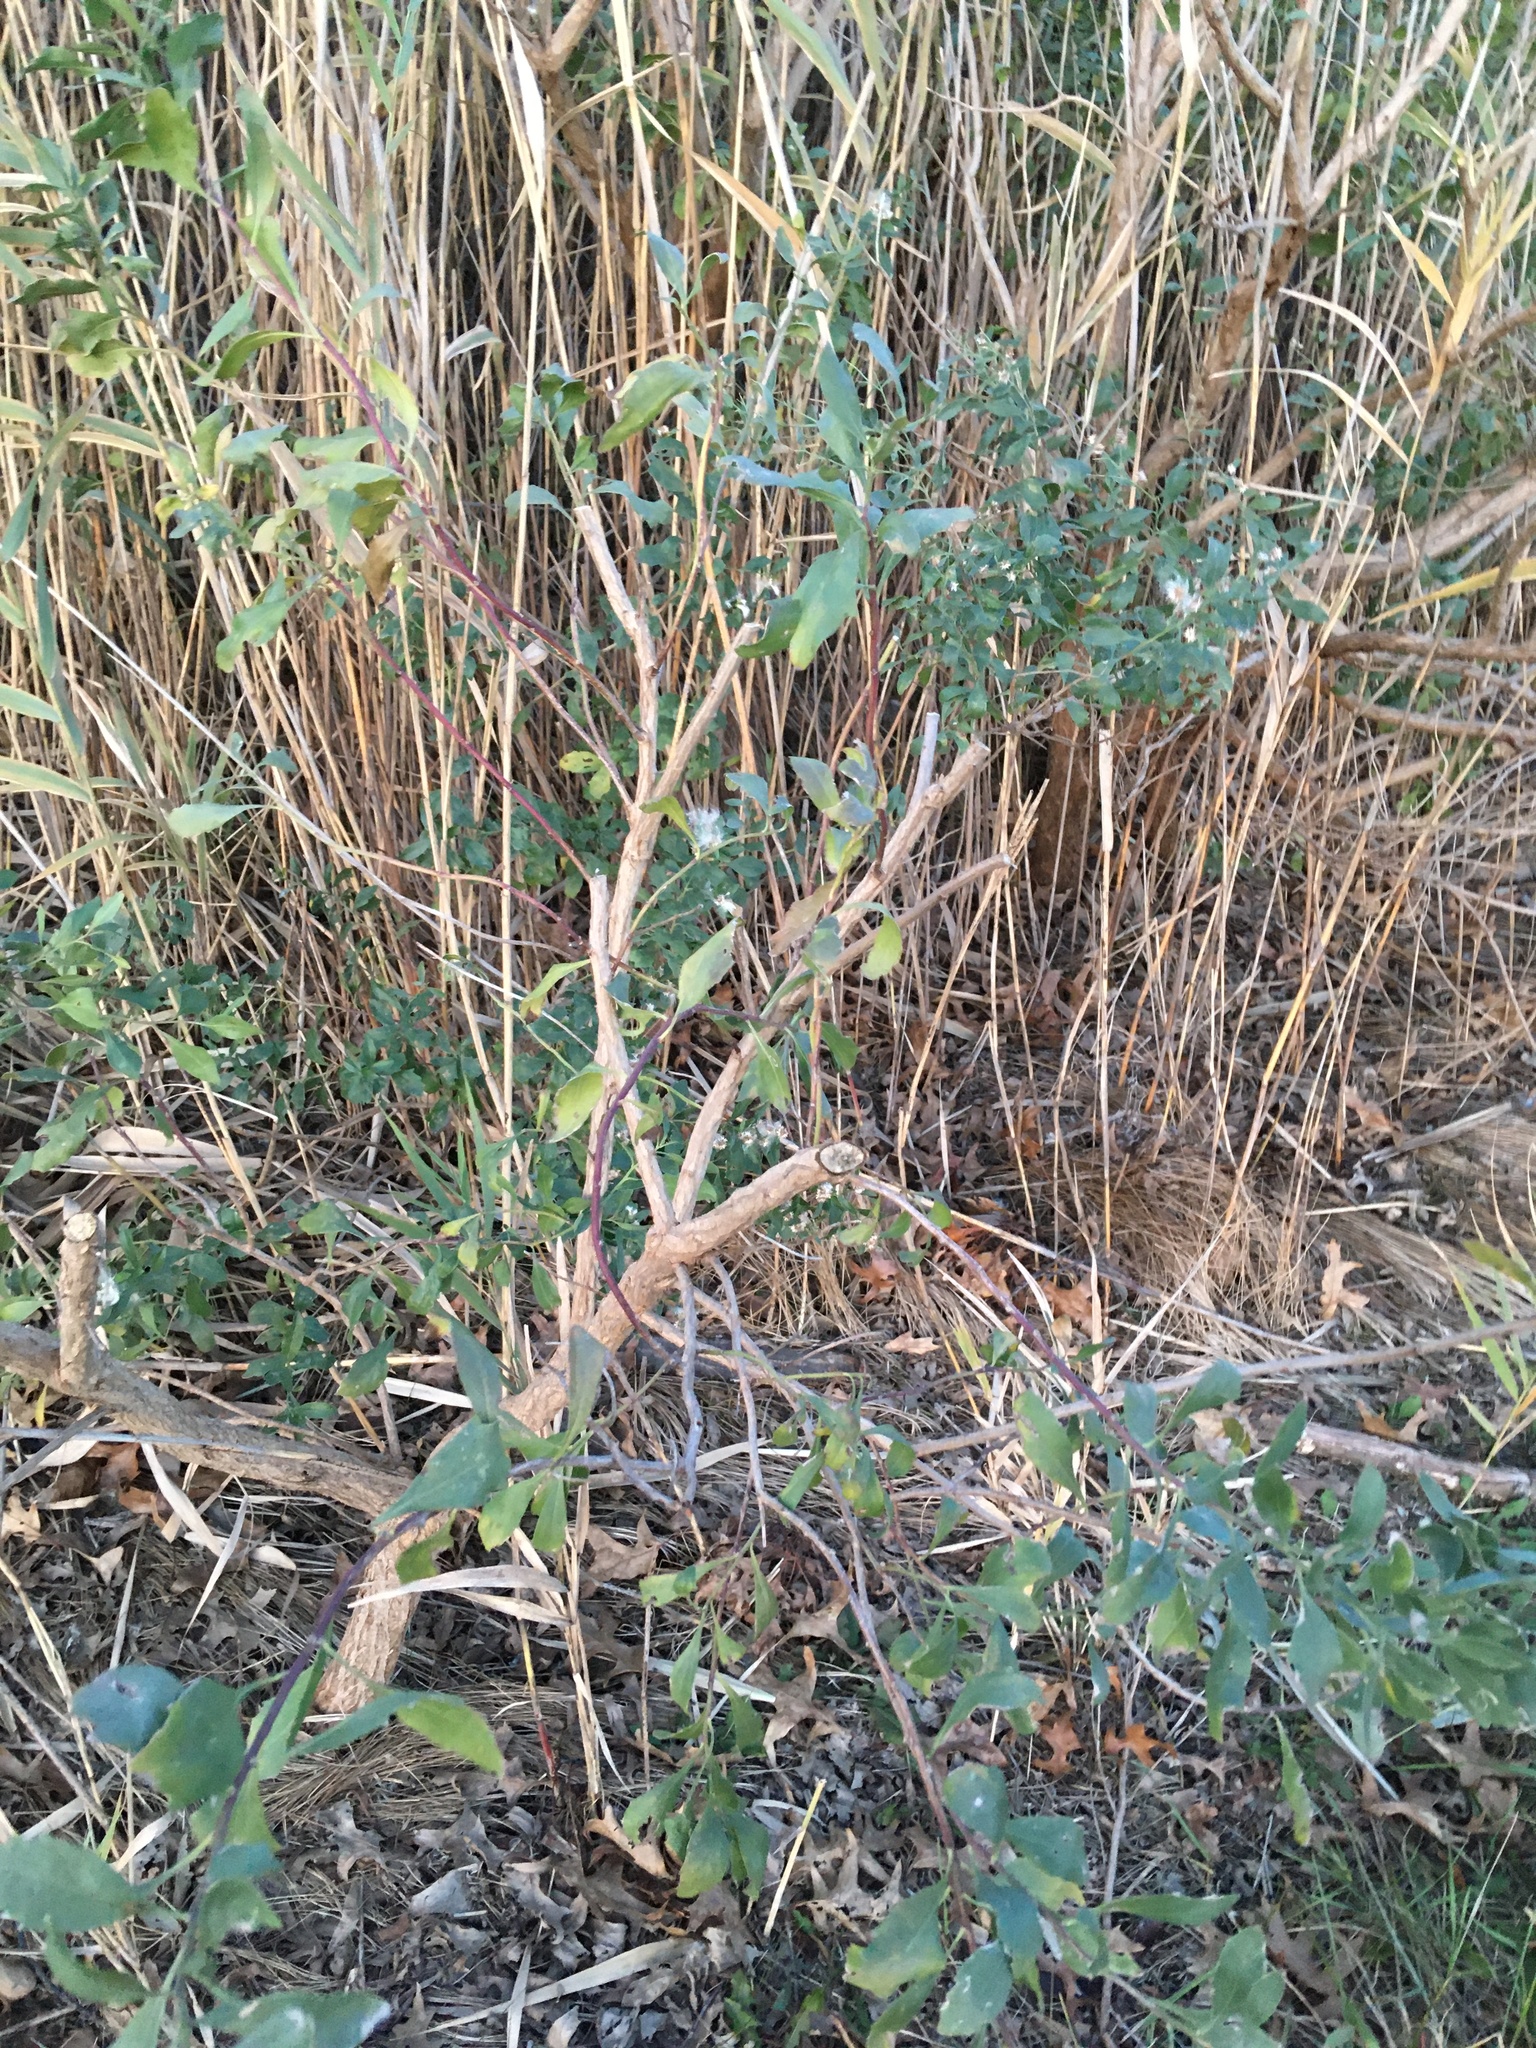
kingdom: Plantae
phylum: Tracheophyta
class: Magnoliopsida
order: Asterales
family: Asteraceae
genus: Baccharis
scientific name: Baccharis halimifolia
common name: Eastern baccharis
